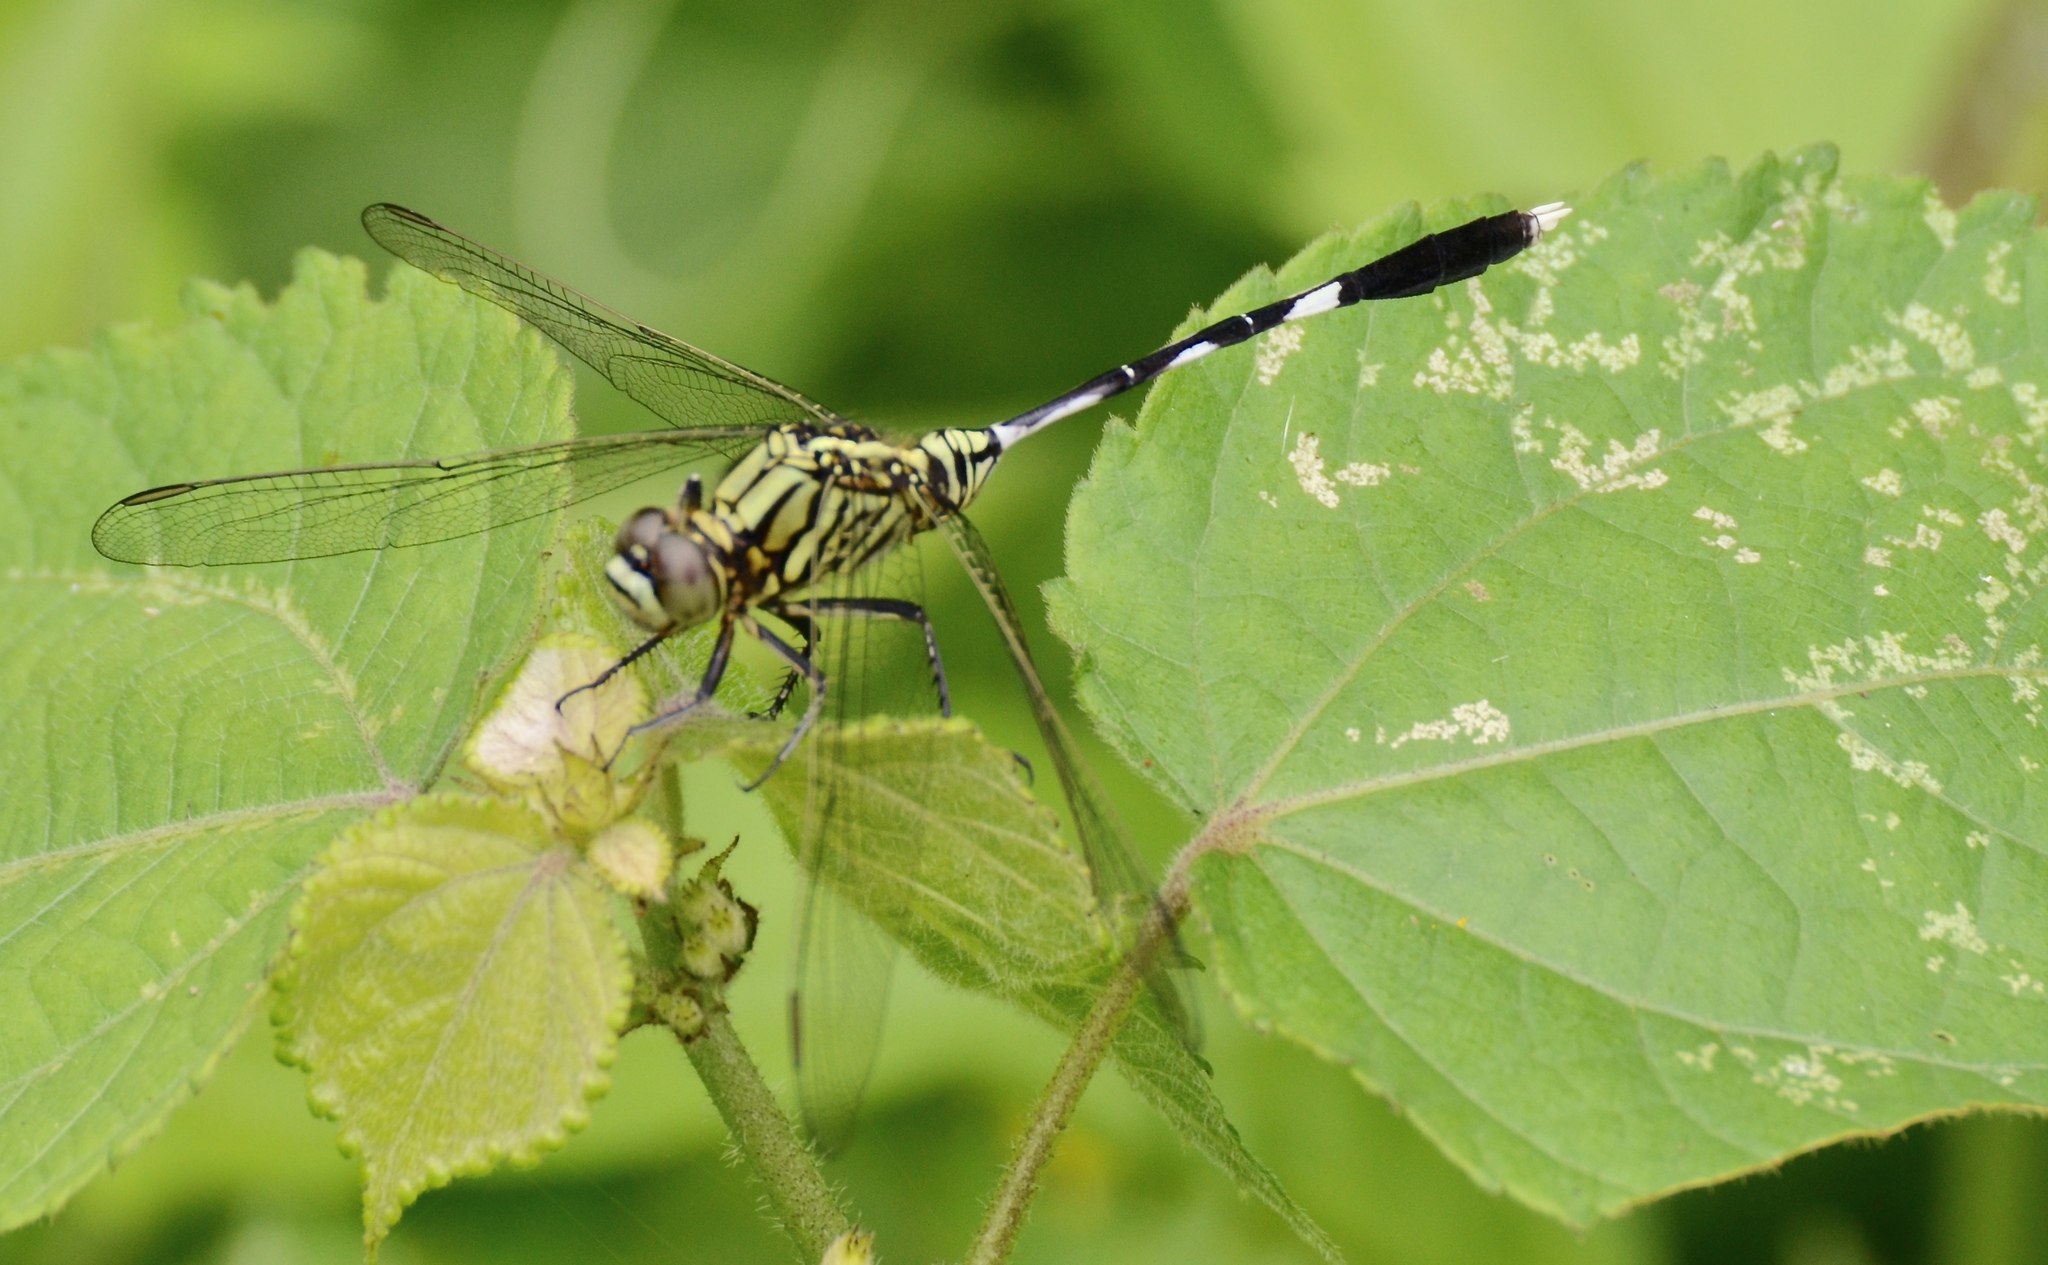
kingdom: Animalia
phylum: Arthropoda
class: Insecta
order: Odonata
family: Libellulidae
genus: Orthetrum
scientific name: Orthetrum sabina
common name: Slender skimmer
